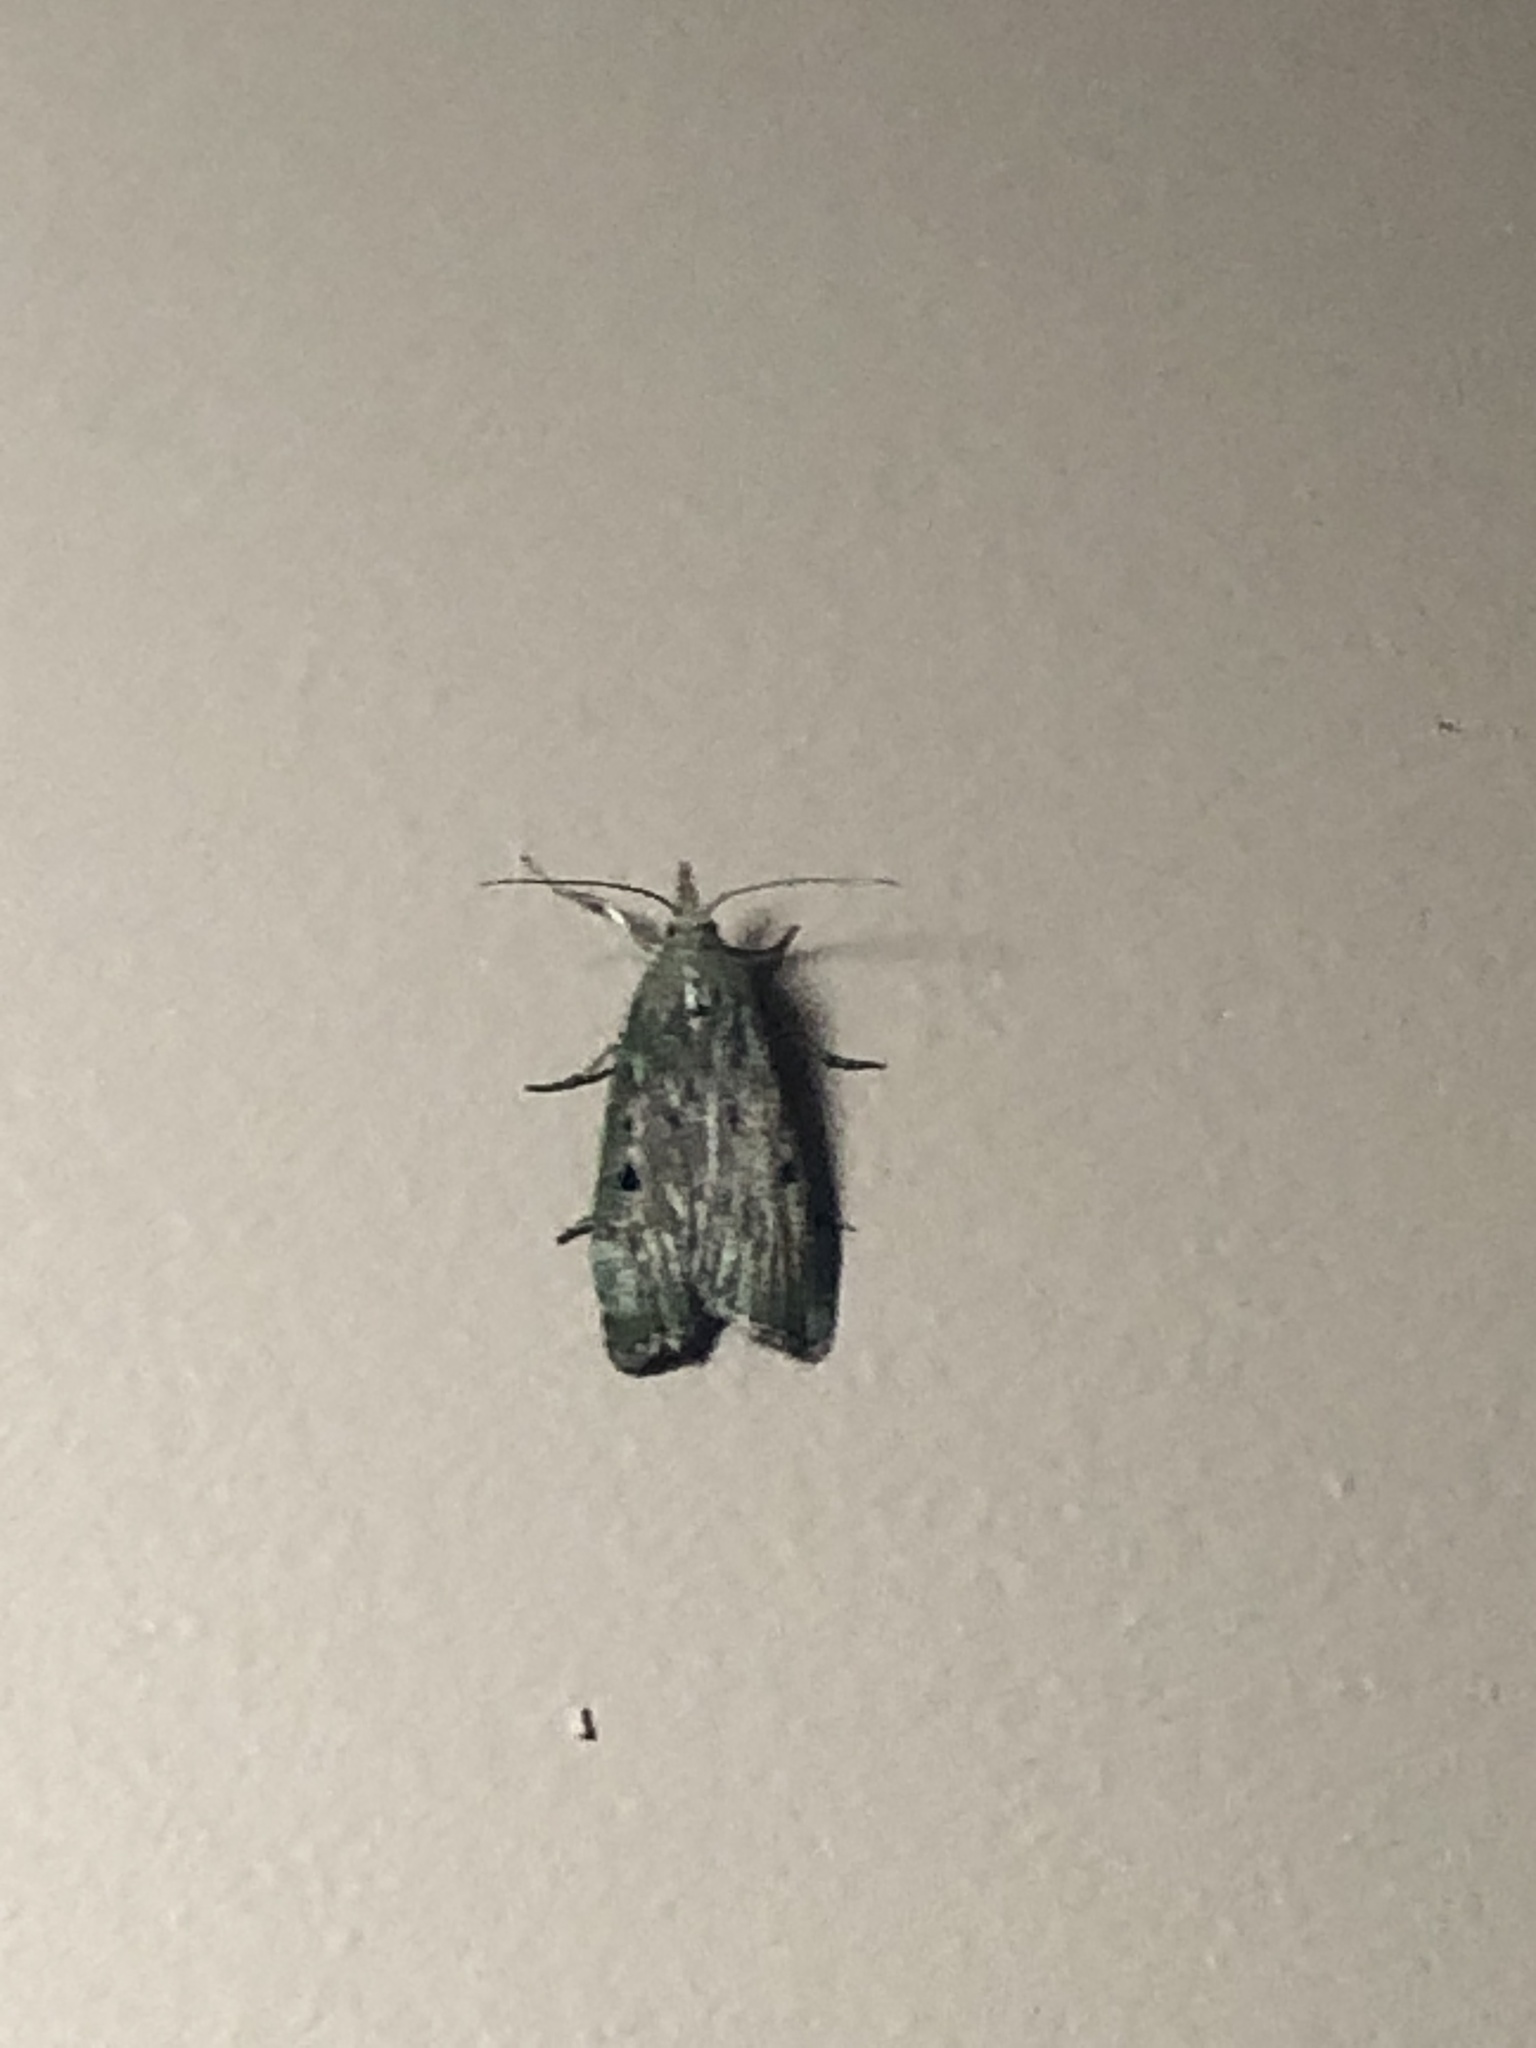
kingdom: Animalia
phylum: Arthropoda
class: Insecta
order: Lepidoptera
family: Pyralidae
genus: Aphomia
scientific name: Aphomia sociella
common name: Bee moth
